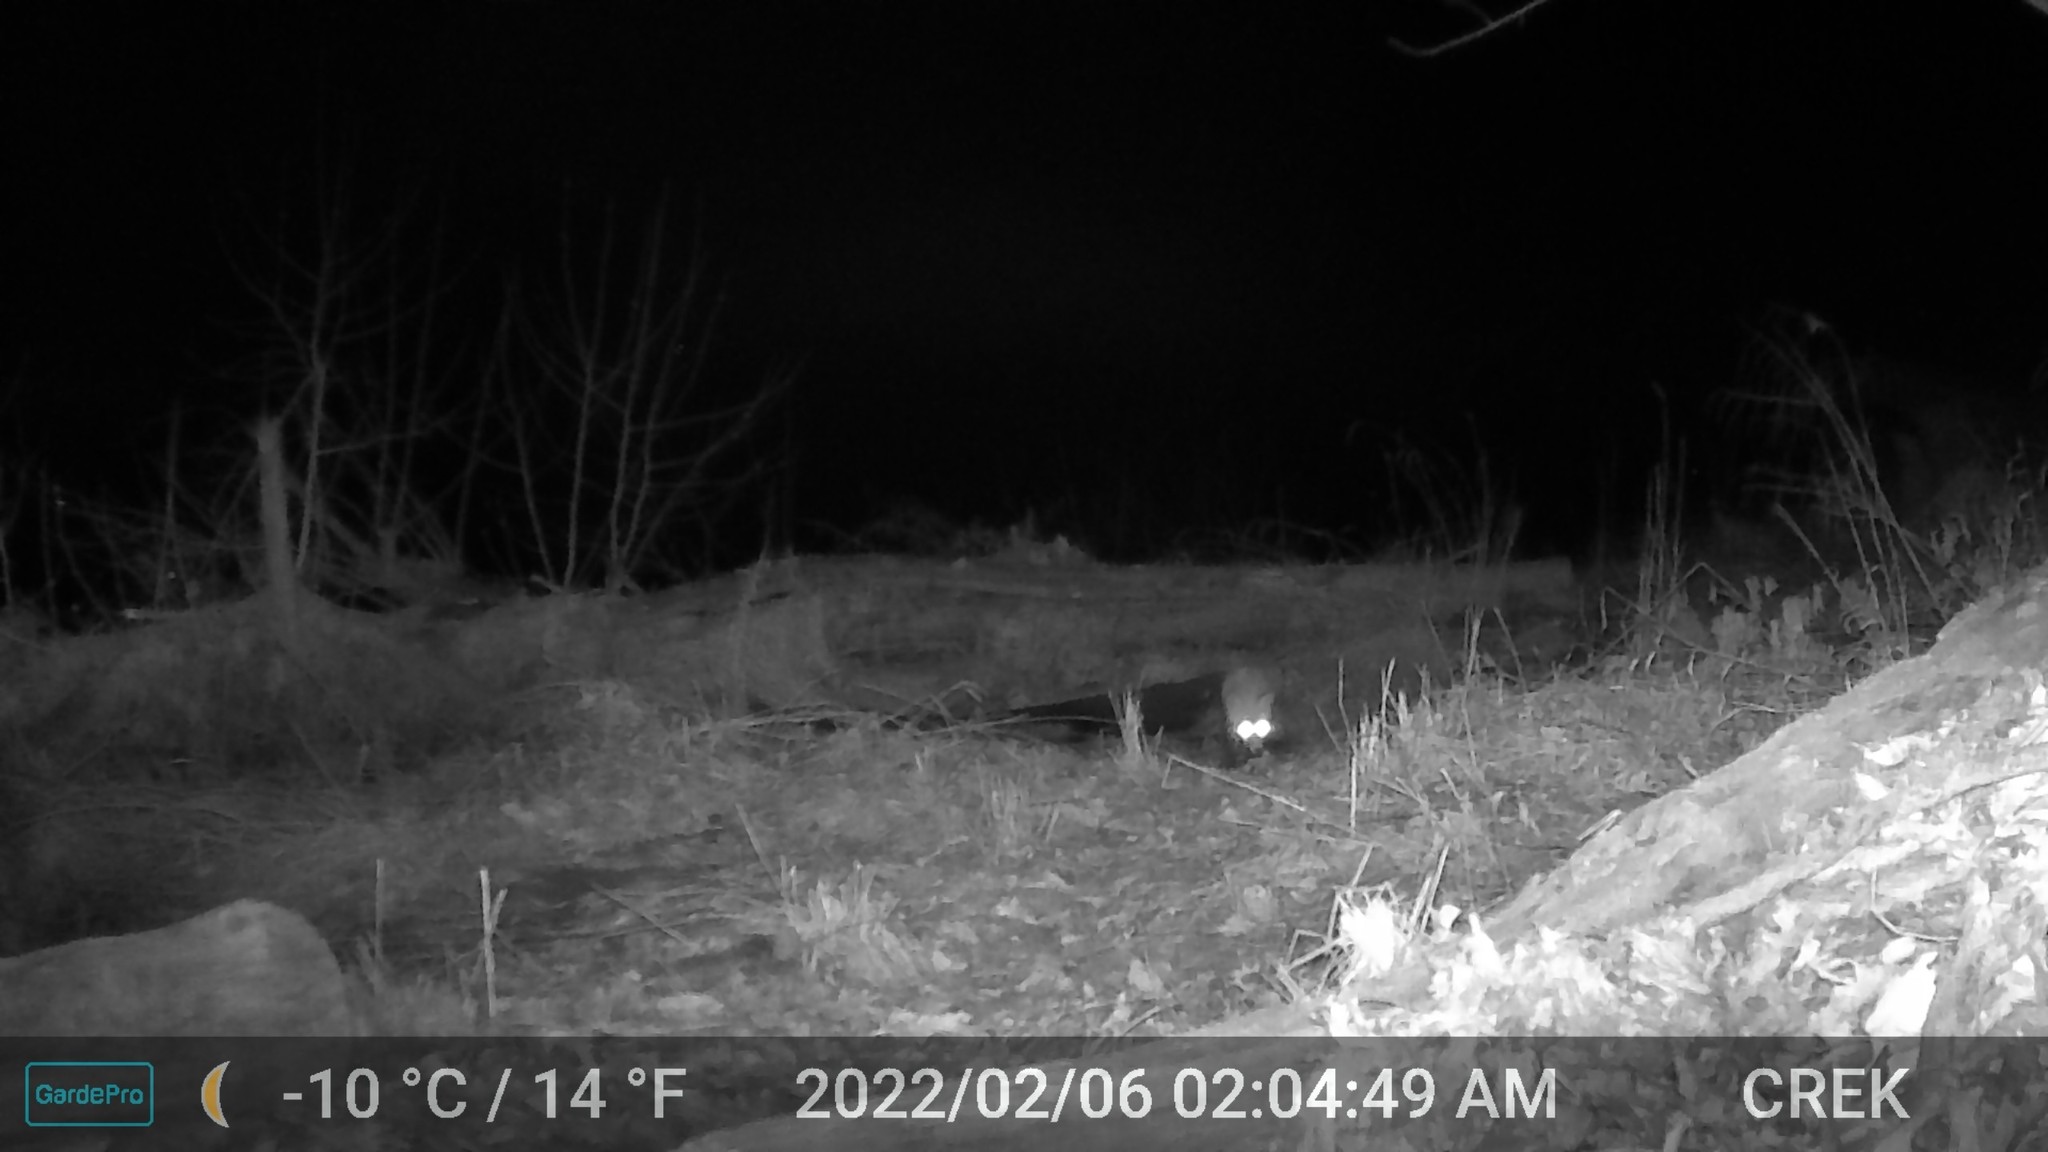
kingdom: Animalia
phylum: Chordata
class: Mammalia
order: Carnivora
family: Canidae
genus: Urocyon
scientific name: Urocyon cinereoargenteus
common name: Gray fox
